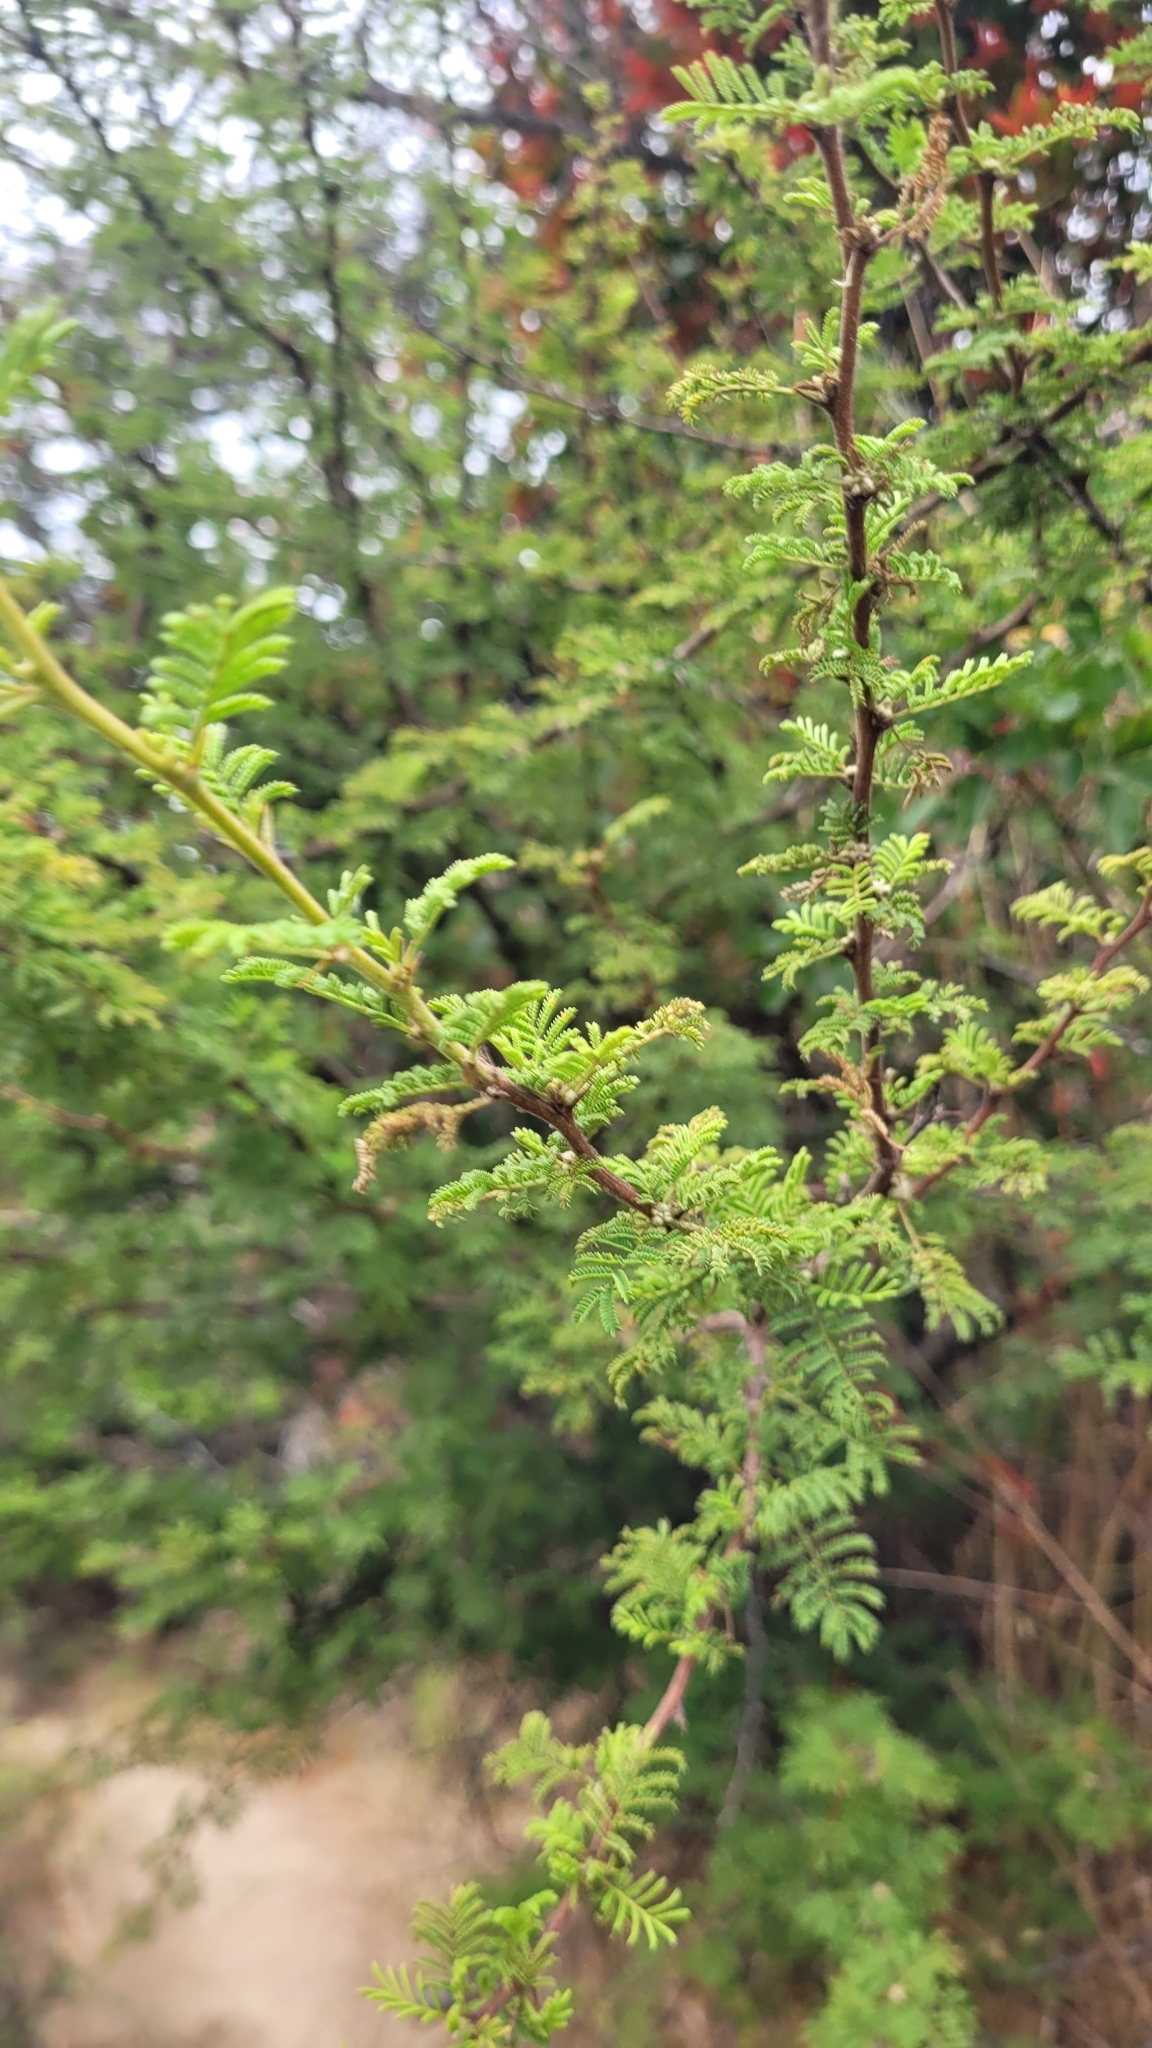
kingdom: Plantae
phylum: Tracheophyta
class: Magnoliopsida
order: Fabales
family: Fabaceae
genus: Vachellia
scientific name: Vachellia caven
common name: Roman cassie
